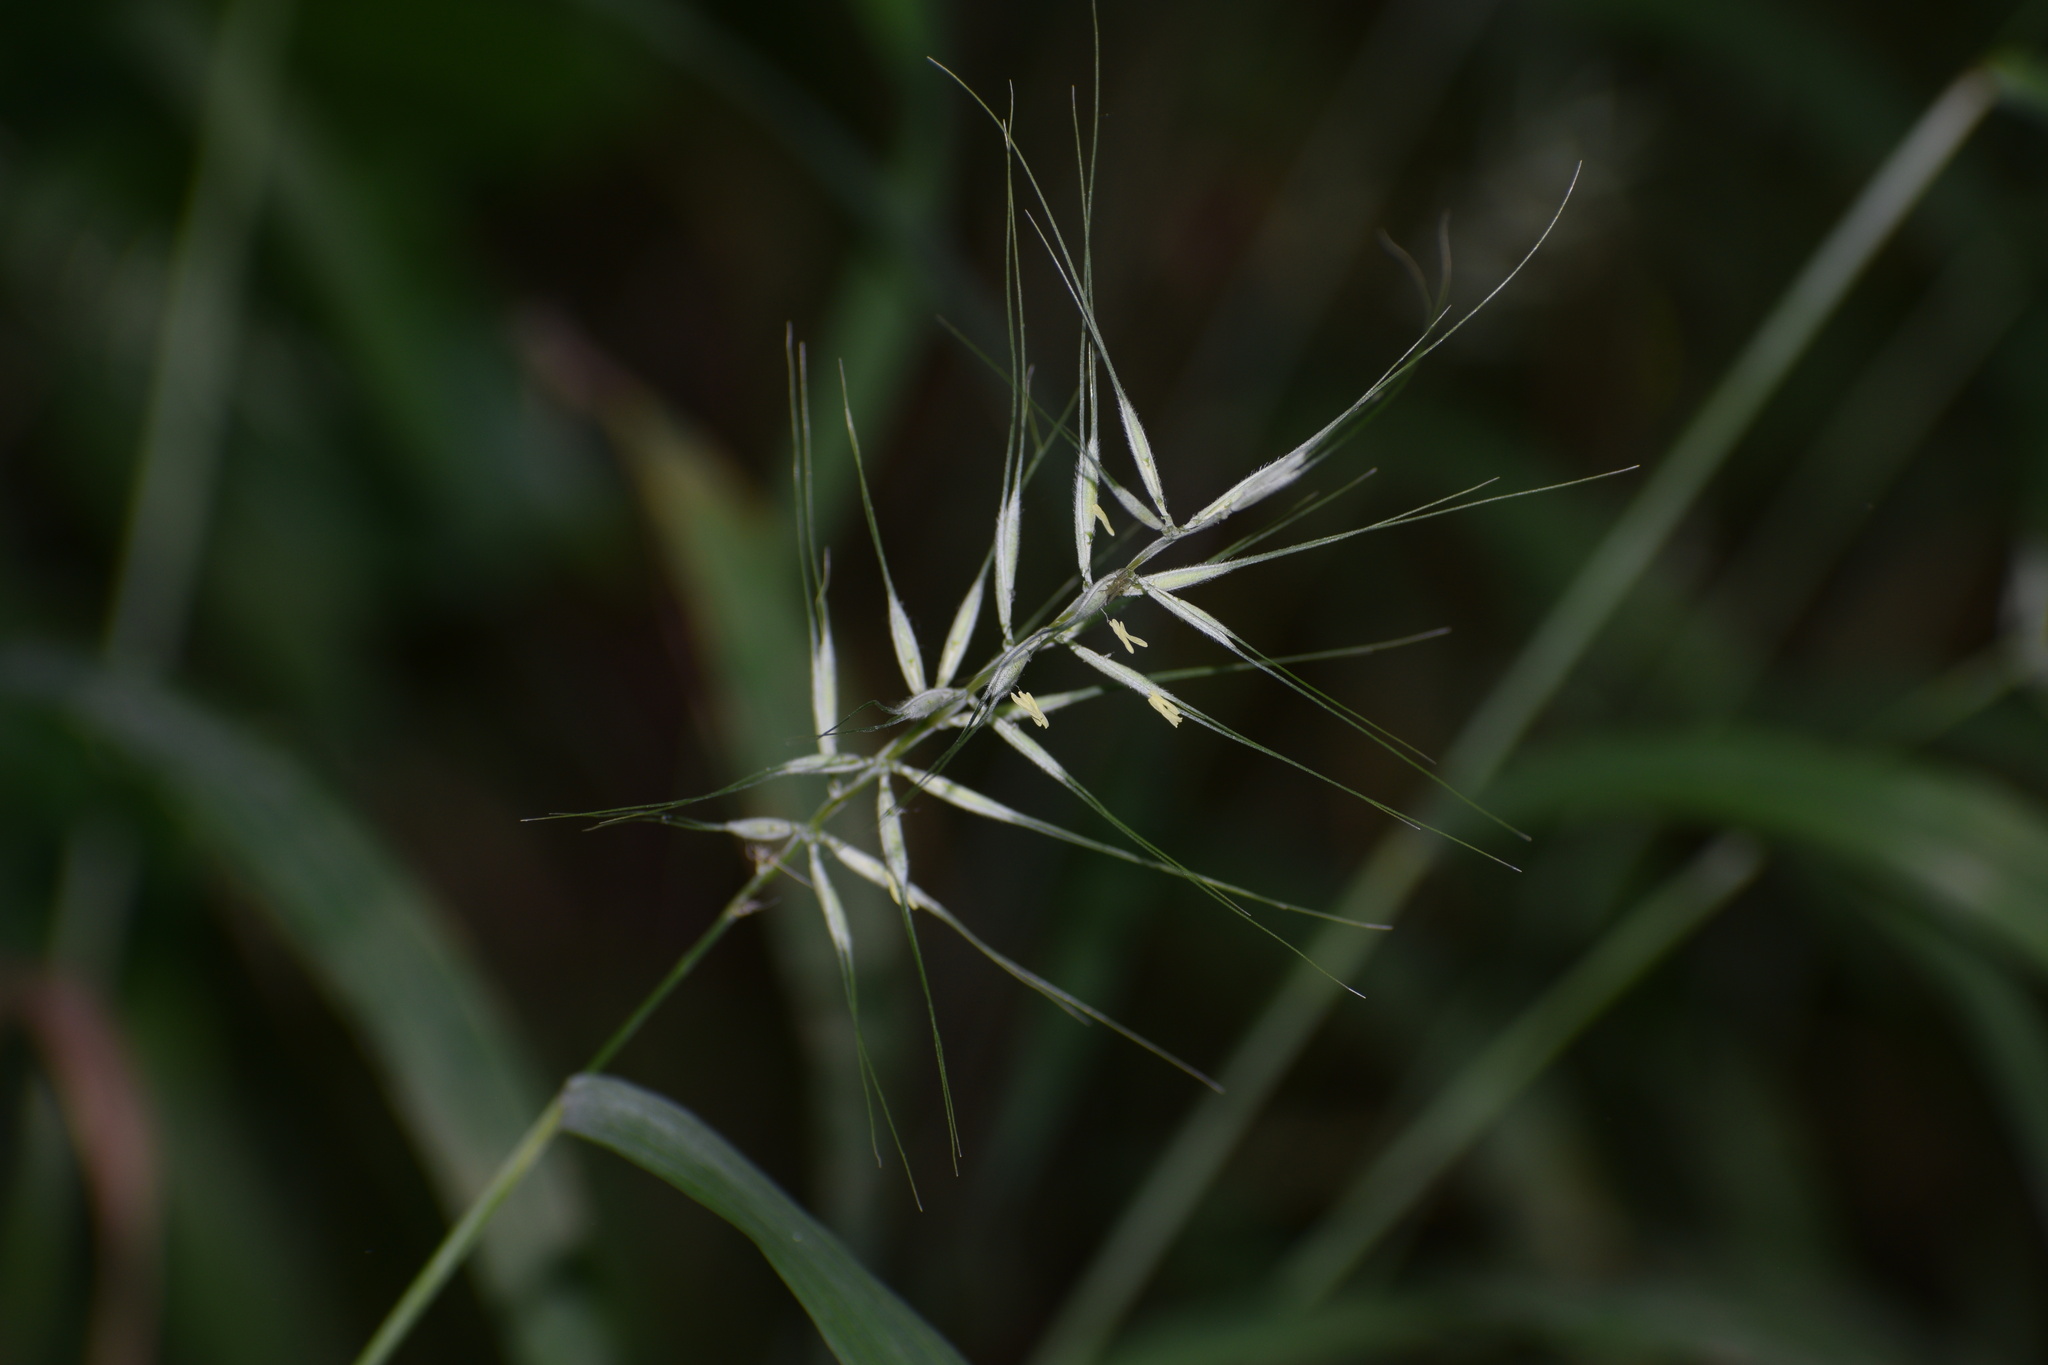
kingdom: Plantae
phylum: Tracheophyta
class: Liliopsida
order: Poales
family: Poaceae
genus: Elymus
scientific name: Elymus hystrix
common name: Bottlebrush grass
